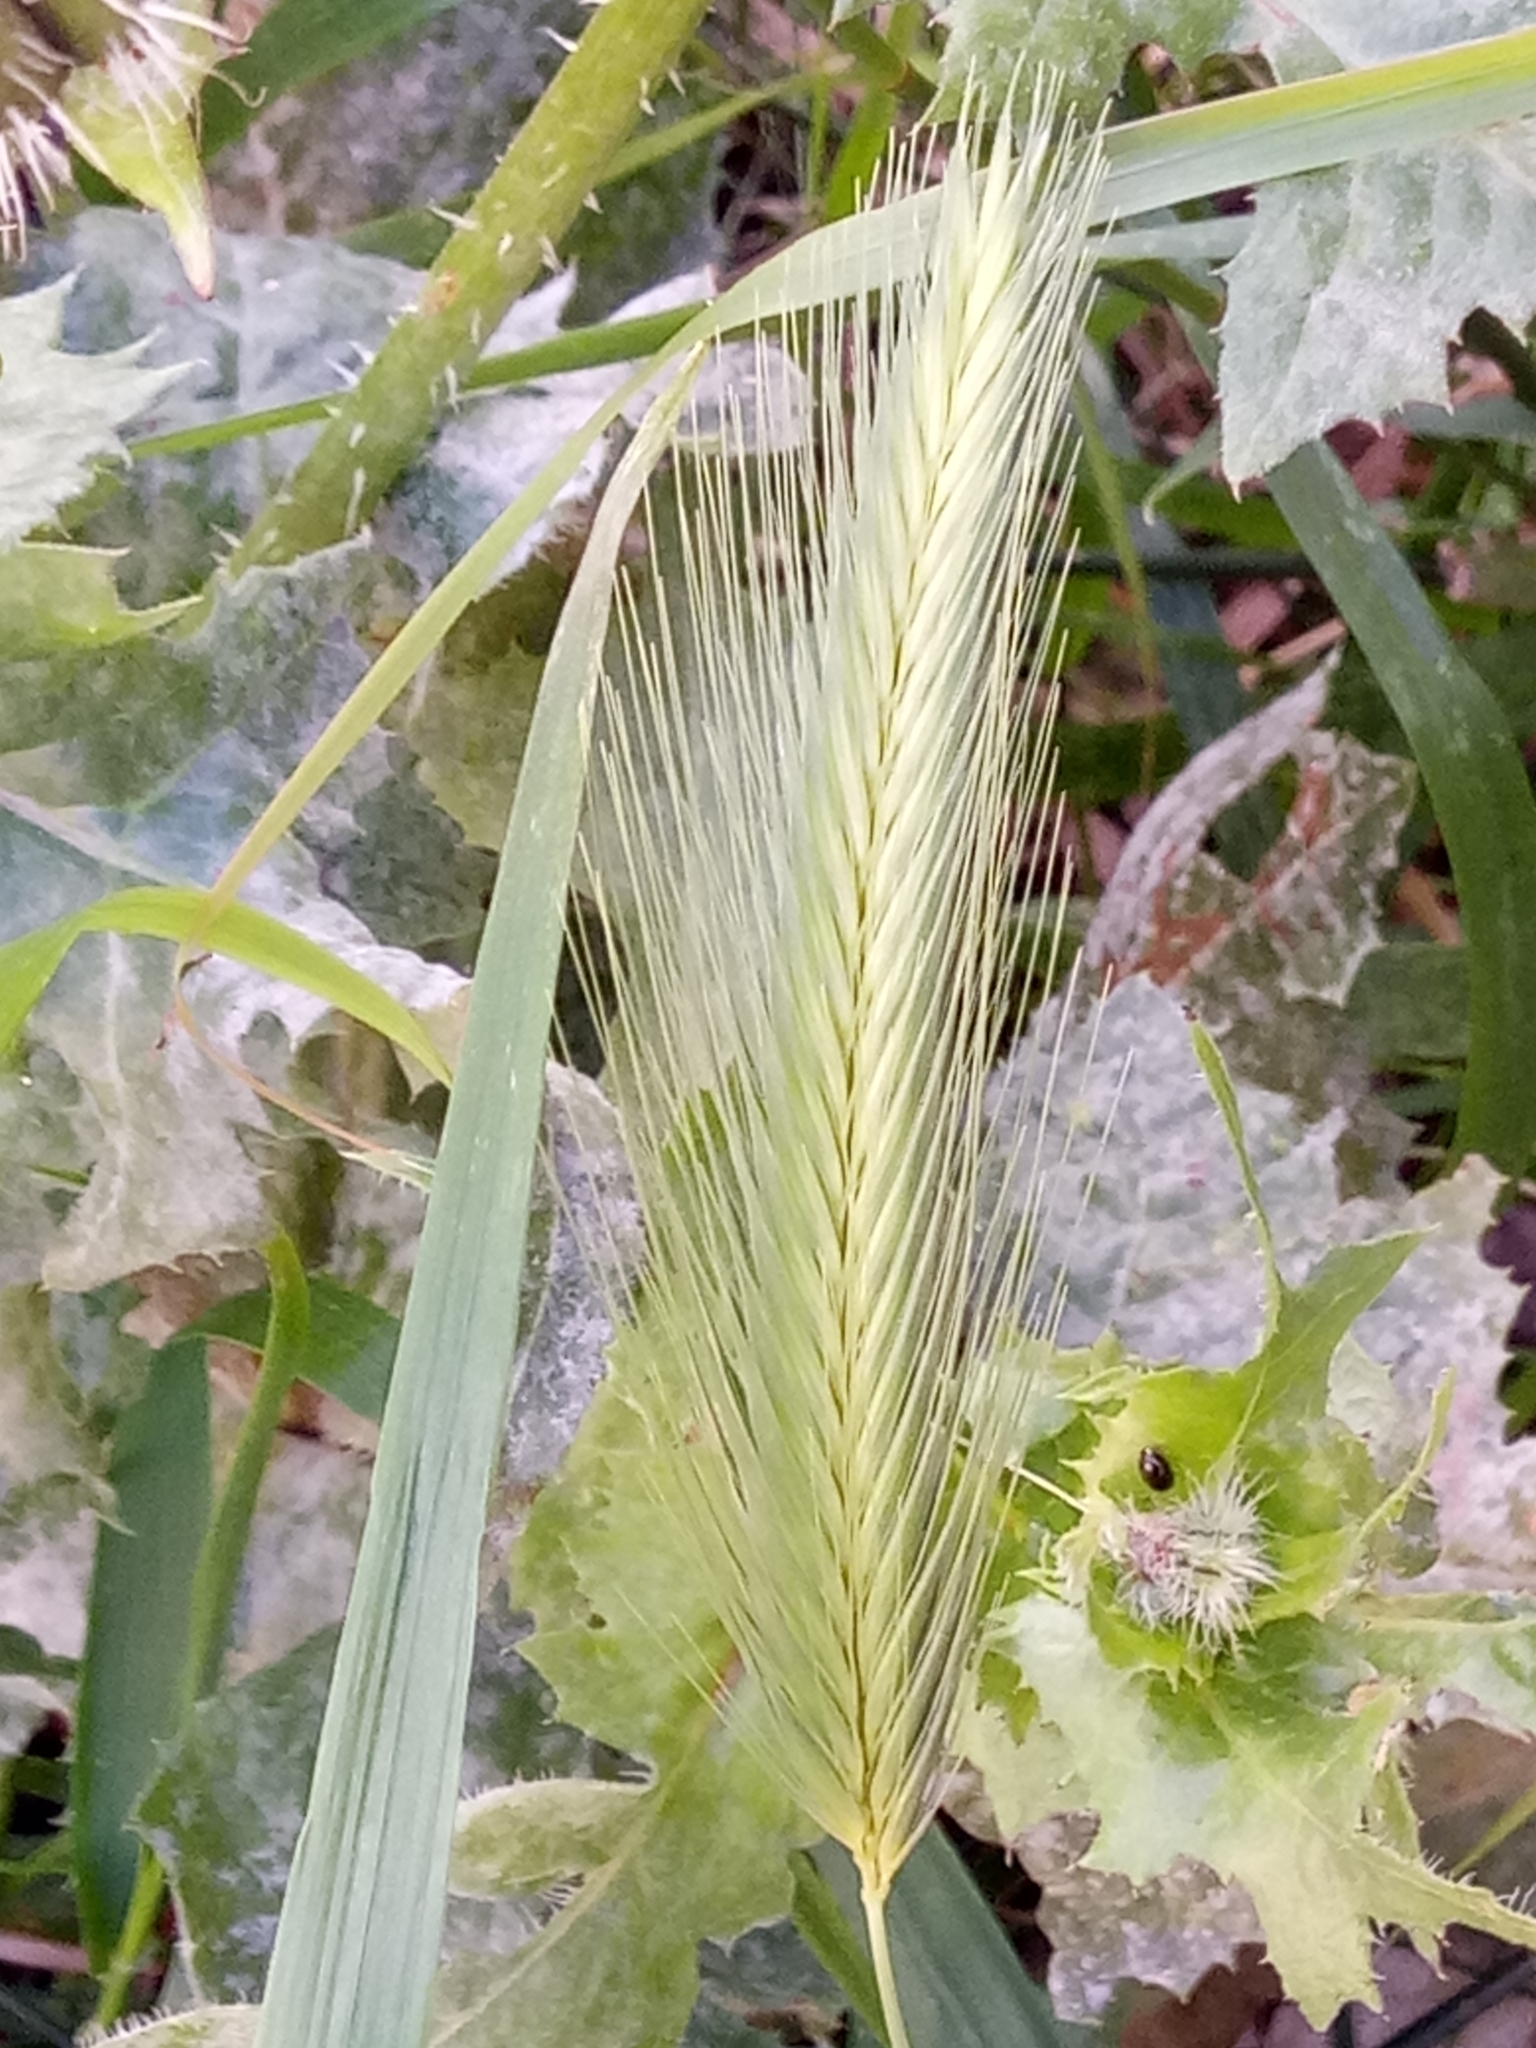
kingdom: Plantae
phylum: Tracheophyta
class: Liliopsida
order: Poales
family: Poaceae
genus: Hordeum
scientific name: Hordeum murinum
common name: Wall barley
